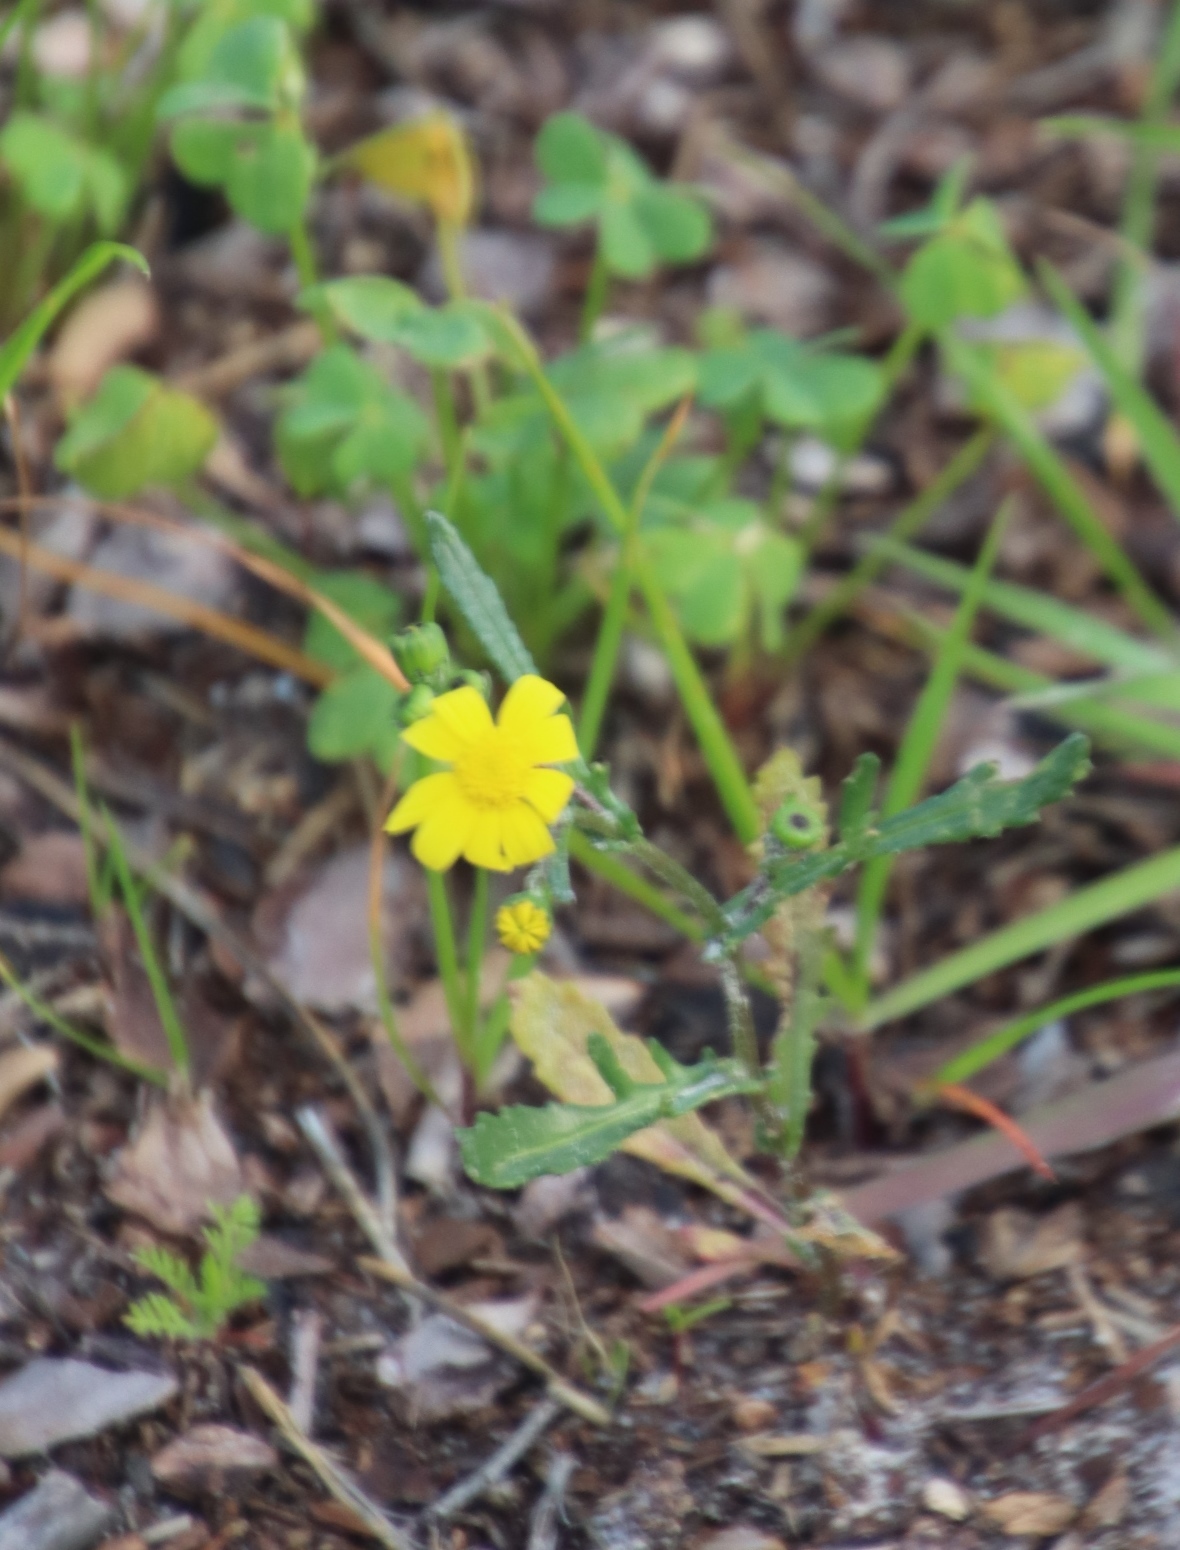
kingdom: Plantae
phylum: Tracheophyta
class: Magnoliopsida
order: Asterales
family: Asteraceae
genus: Senecio
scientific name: Senecio littoreus
